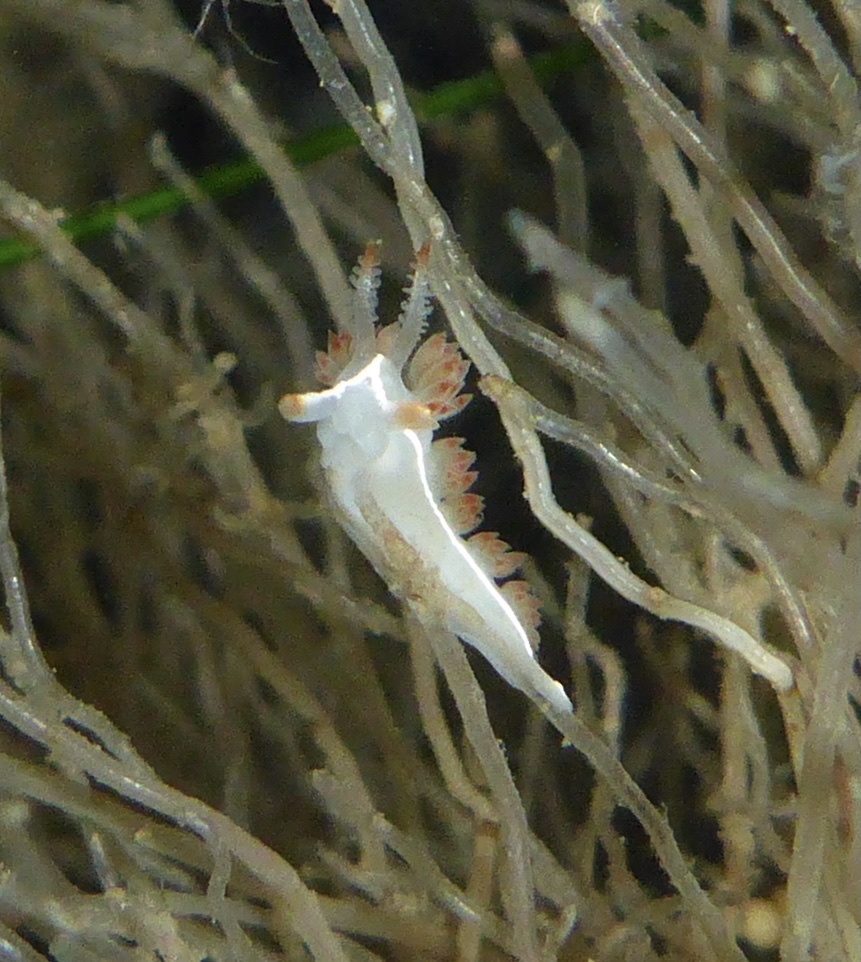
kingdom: Animalia
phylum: Mollusca
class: Gastropoda
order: Nudibranchia
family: Coryphellidae
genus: Coryphella
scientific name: Coryphella trilineata
